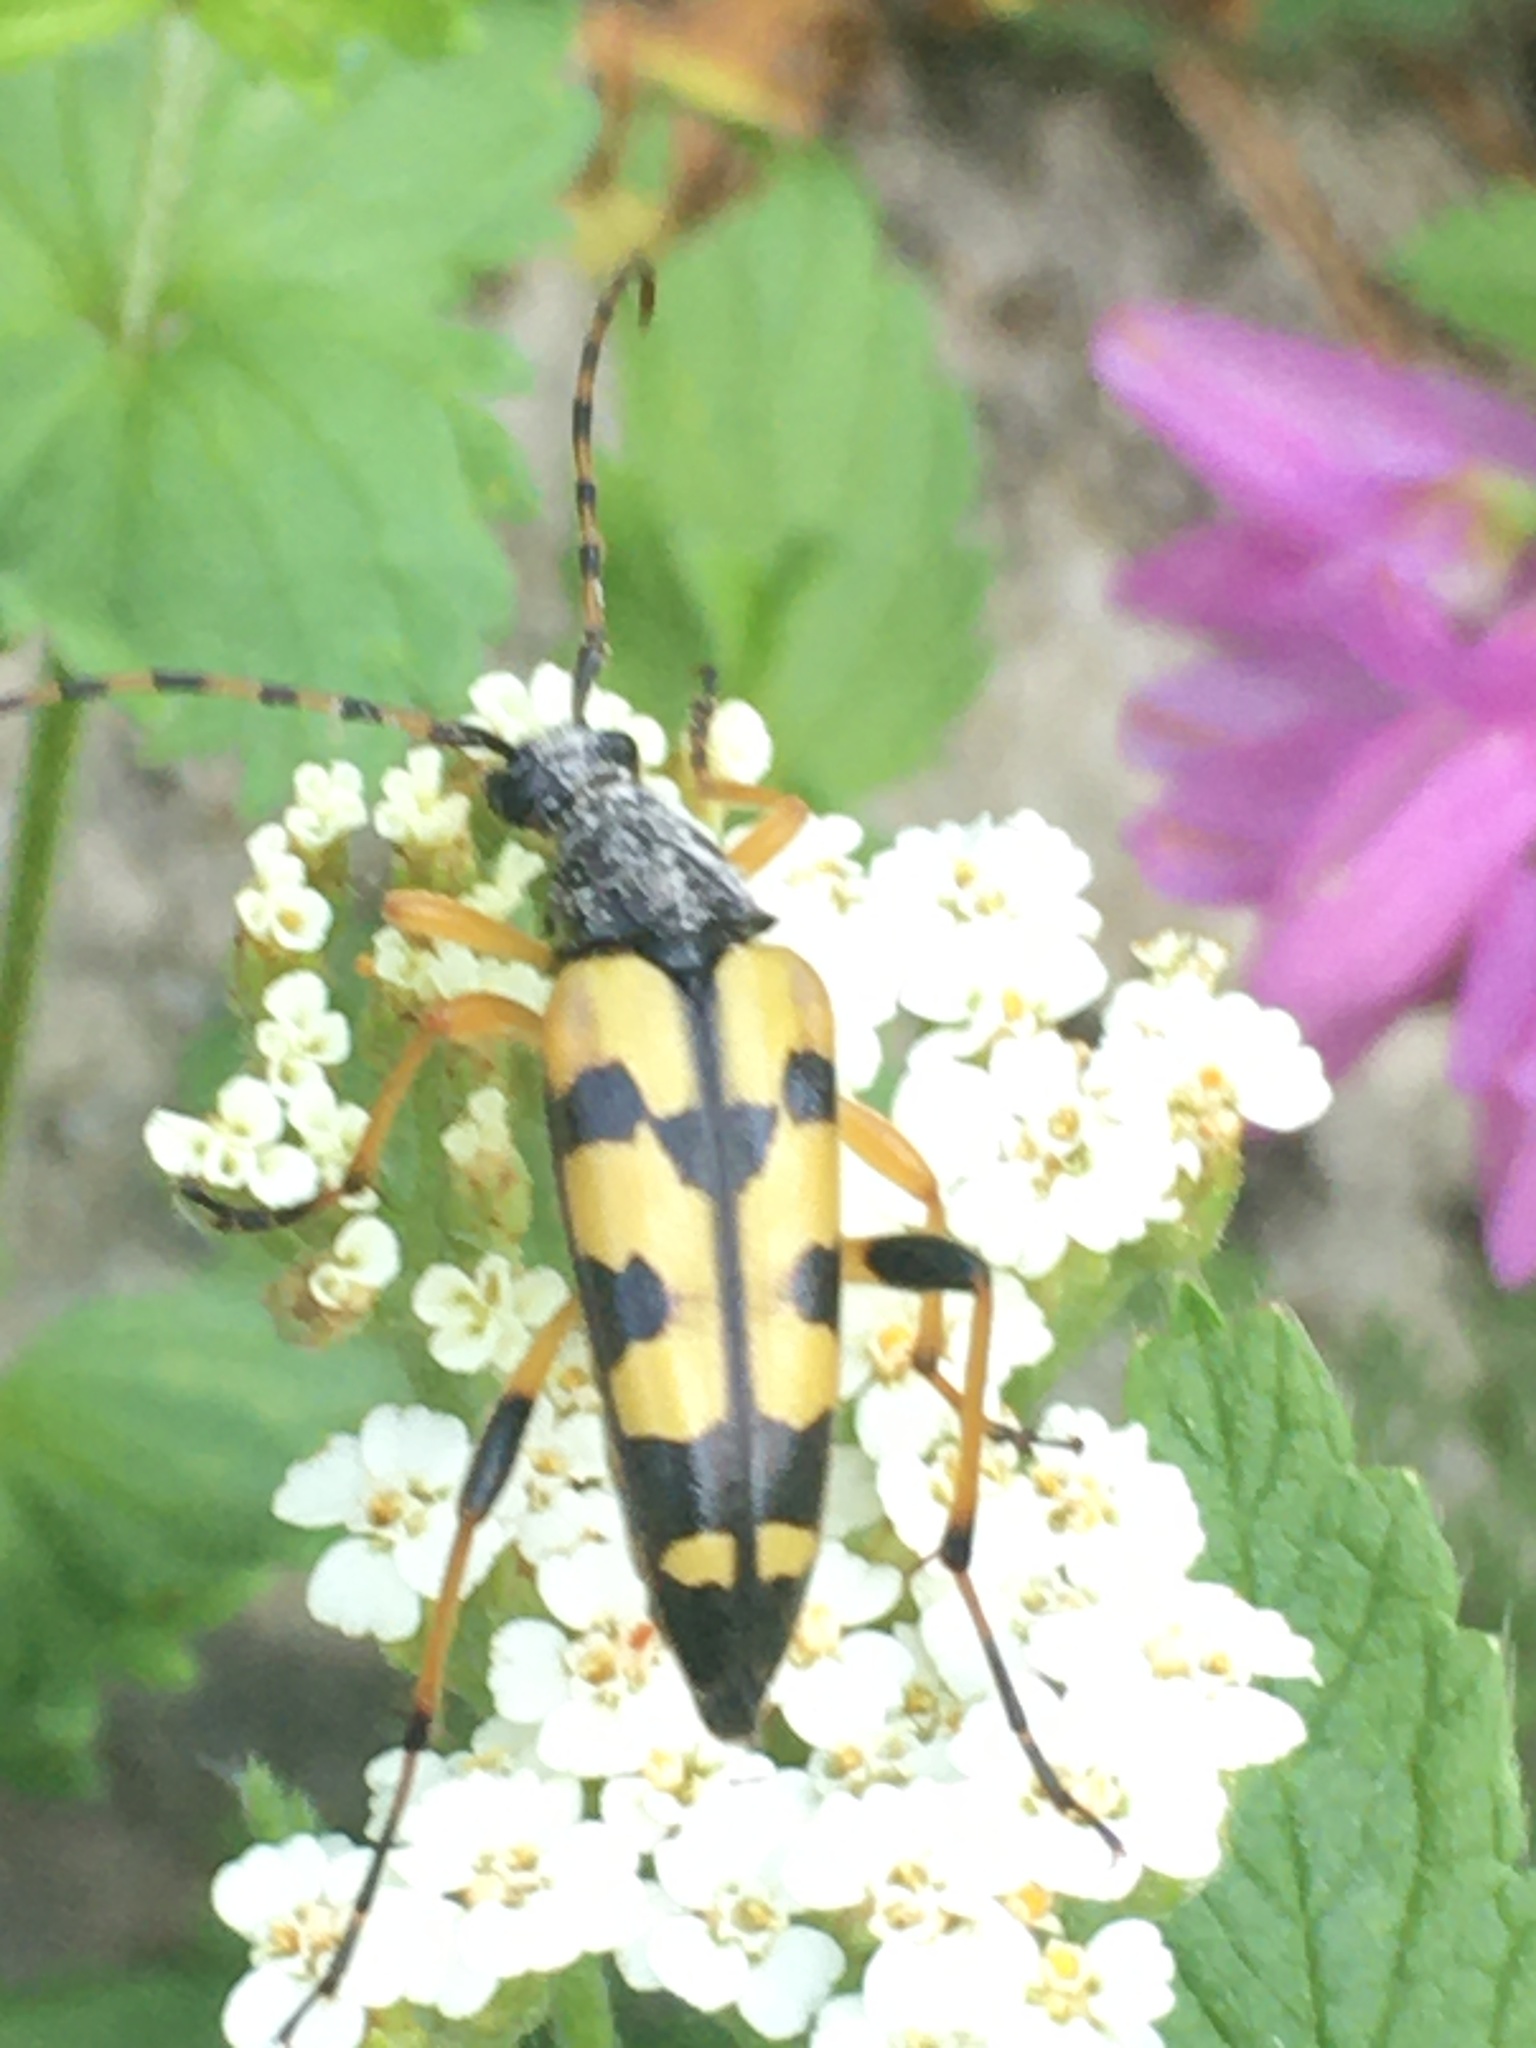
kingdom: Animalia
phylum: Arthropoda
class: Insecta
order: Coleoptera
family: Cerambycidae
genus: Rutpela
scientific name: Rutpela maculata
